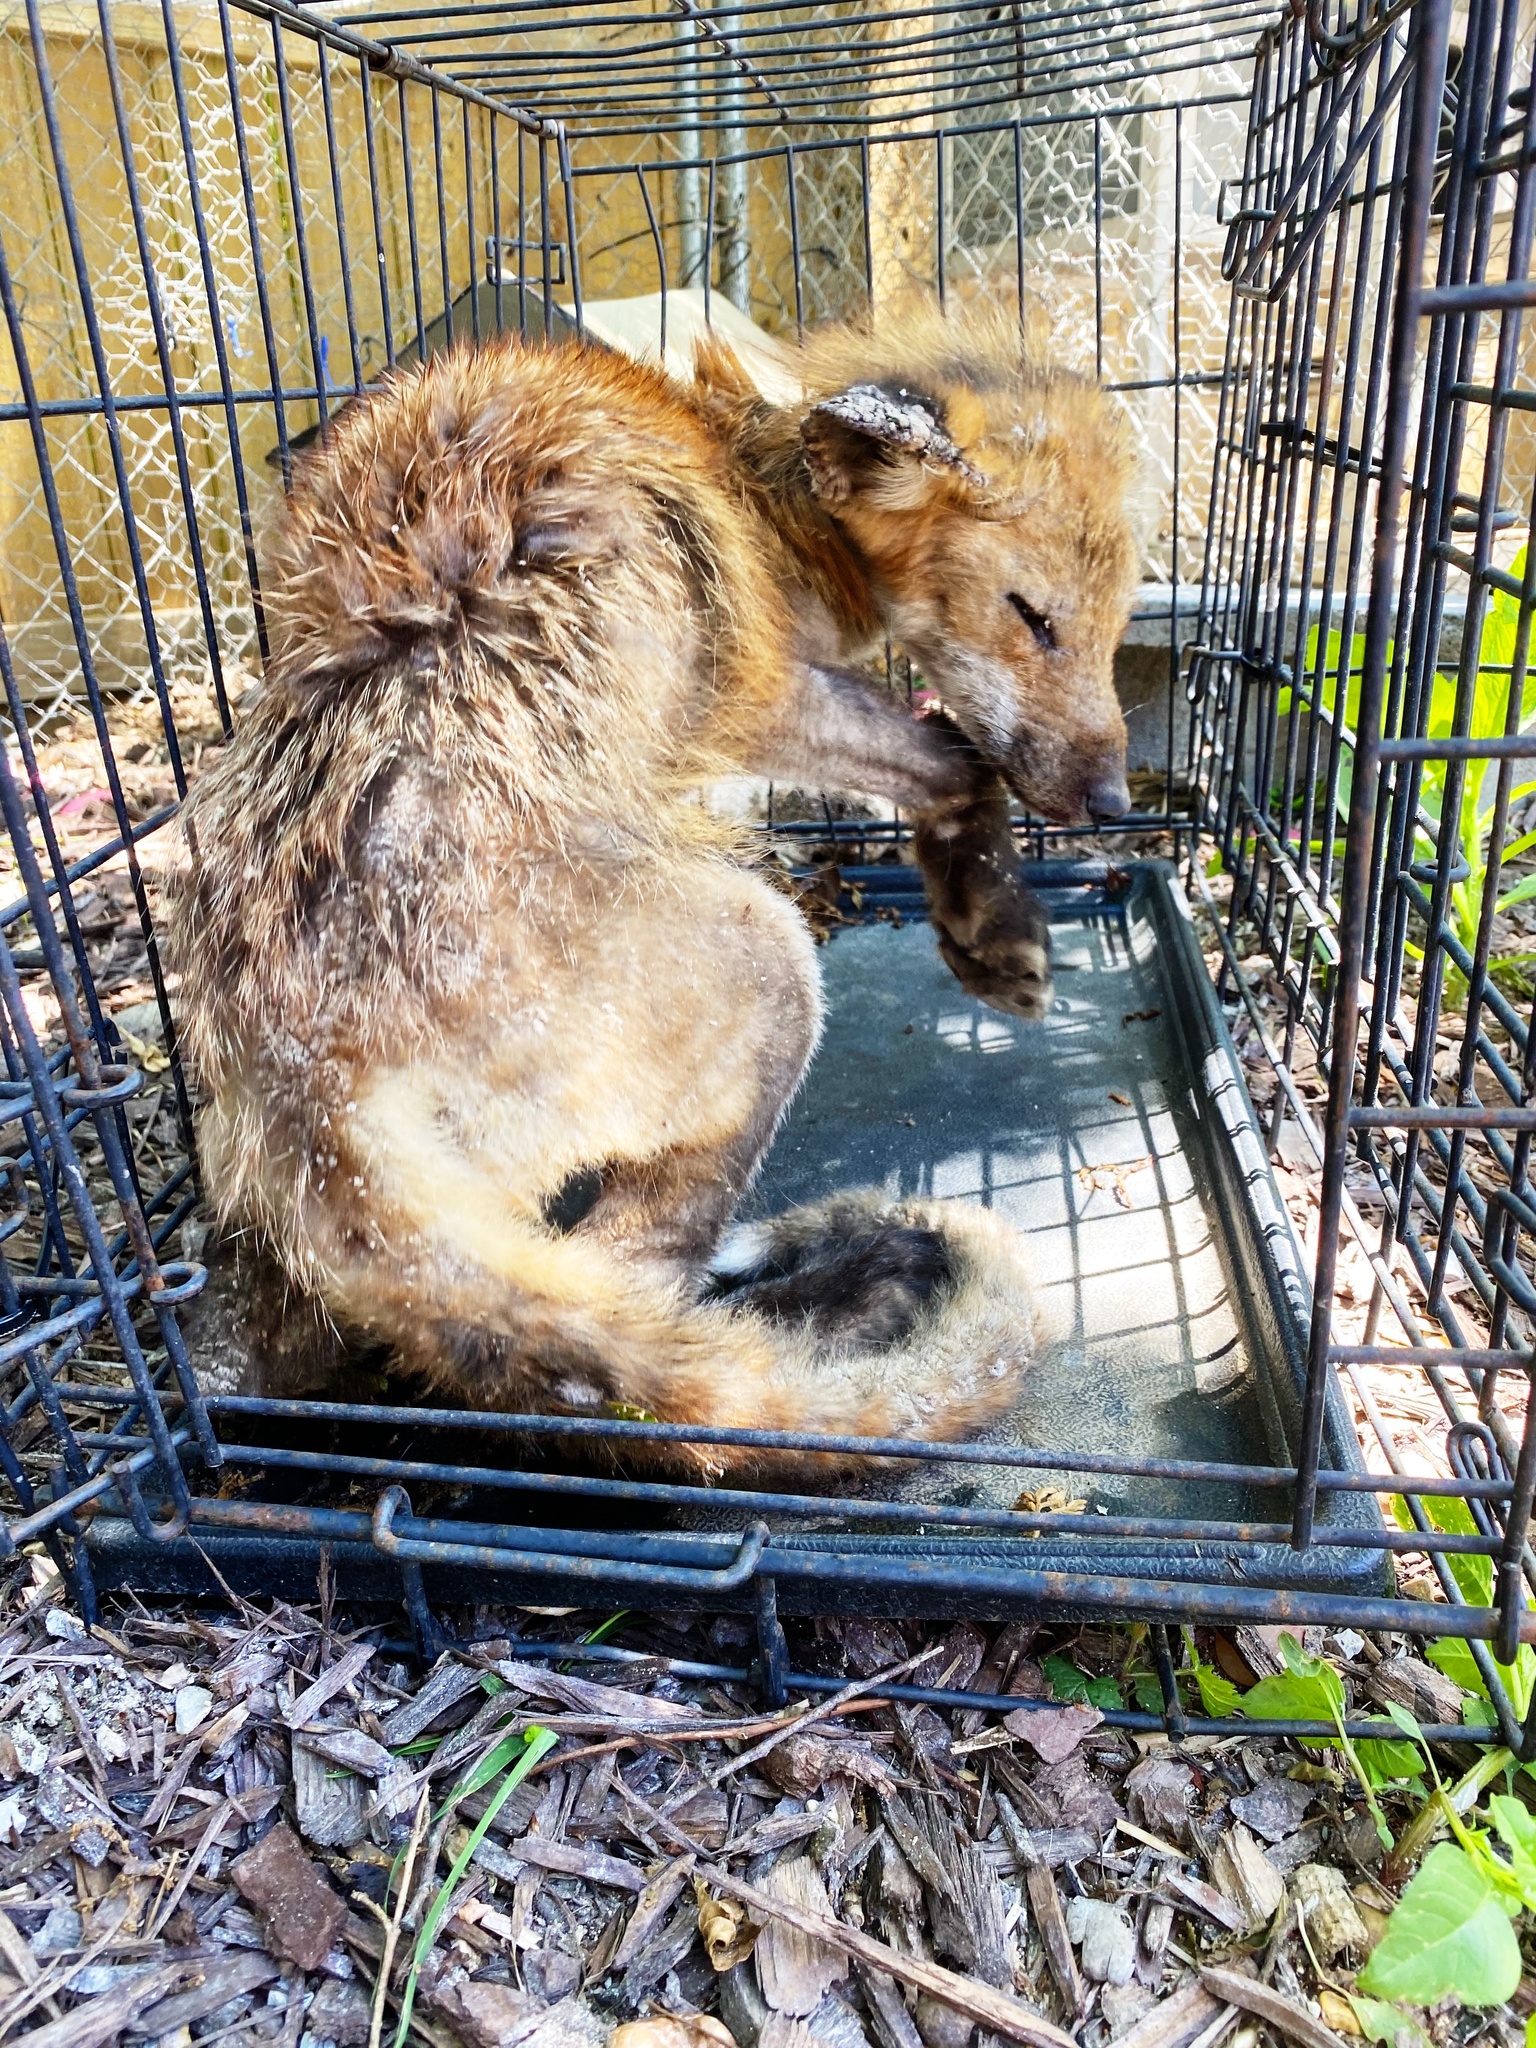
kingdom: Animalia
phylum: Chordata
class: Mammalia
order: Carnivora
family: Canidae
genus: Vulpes
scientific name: Vulpes vulpes
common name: Red fox
